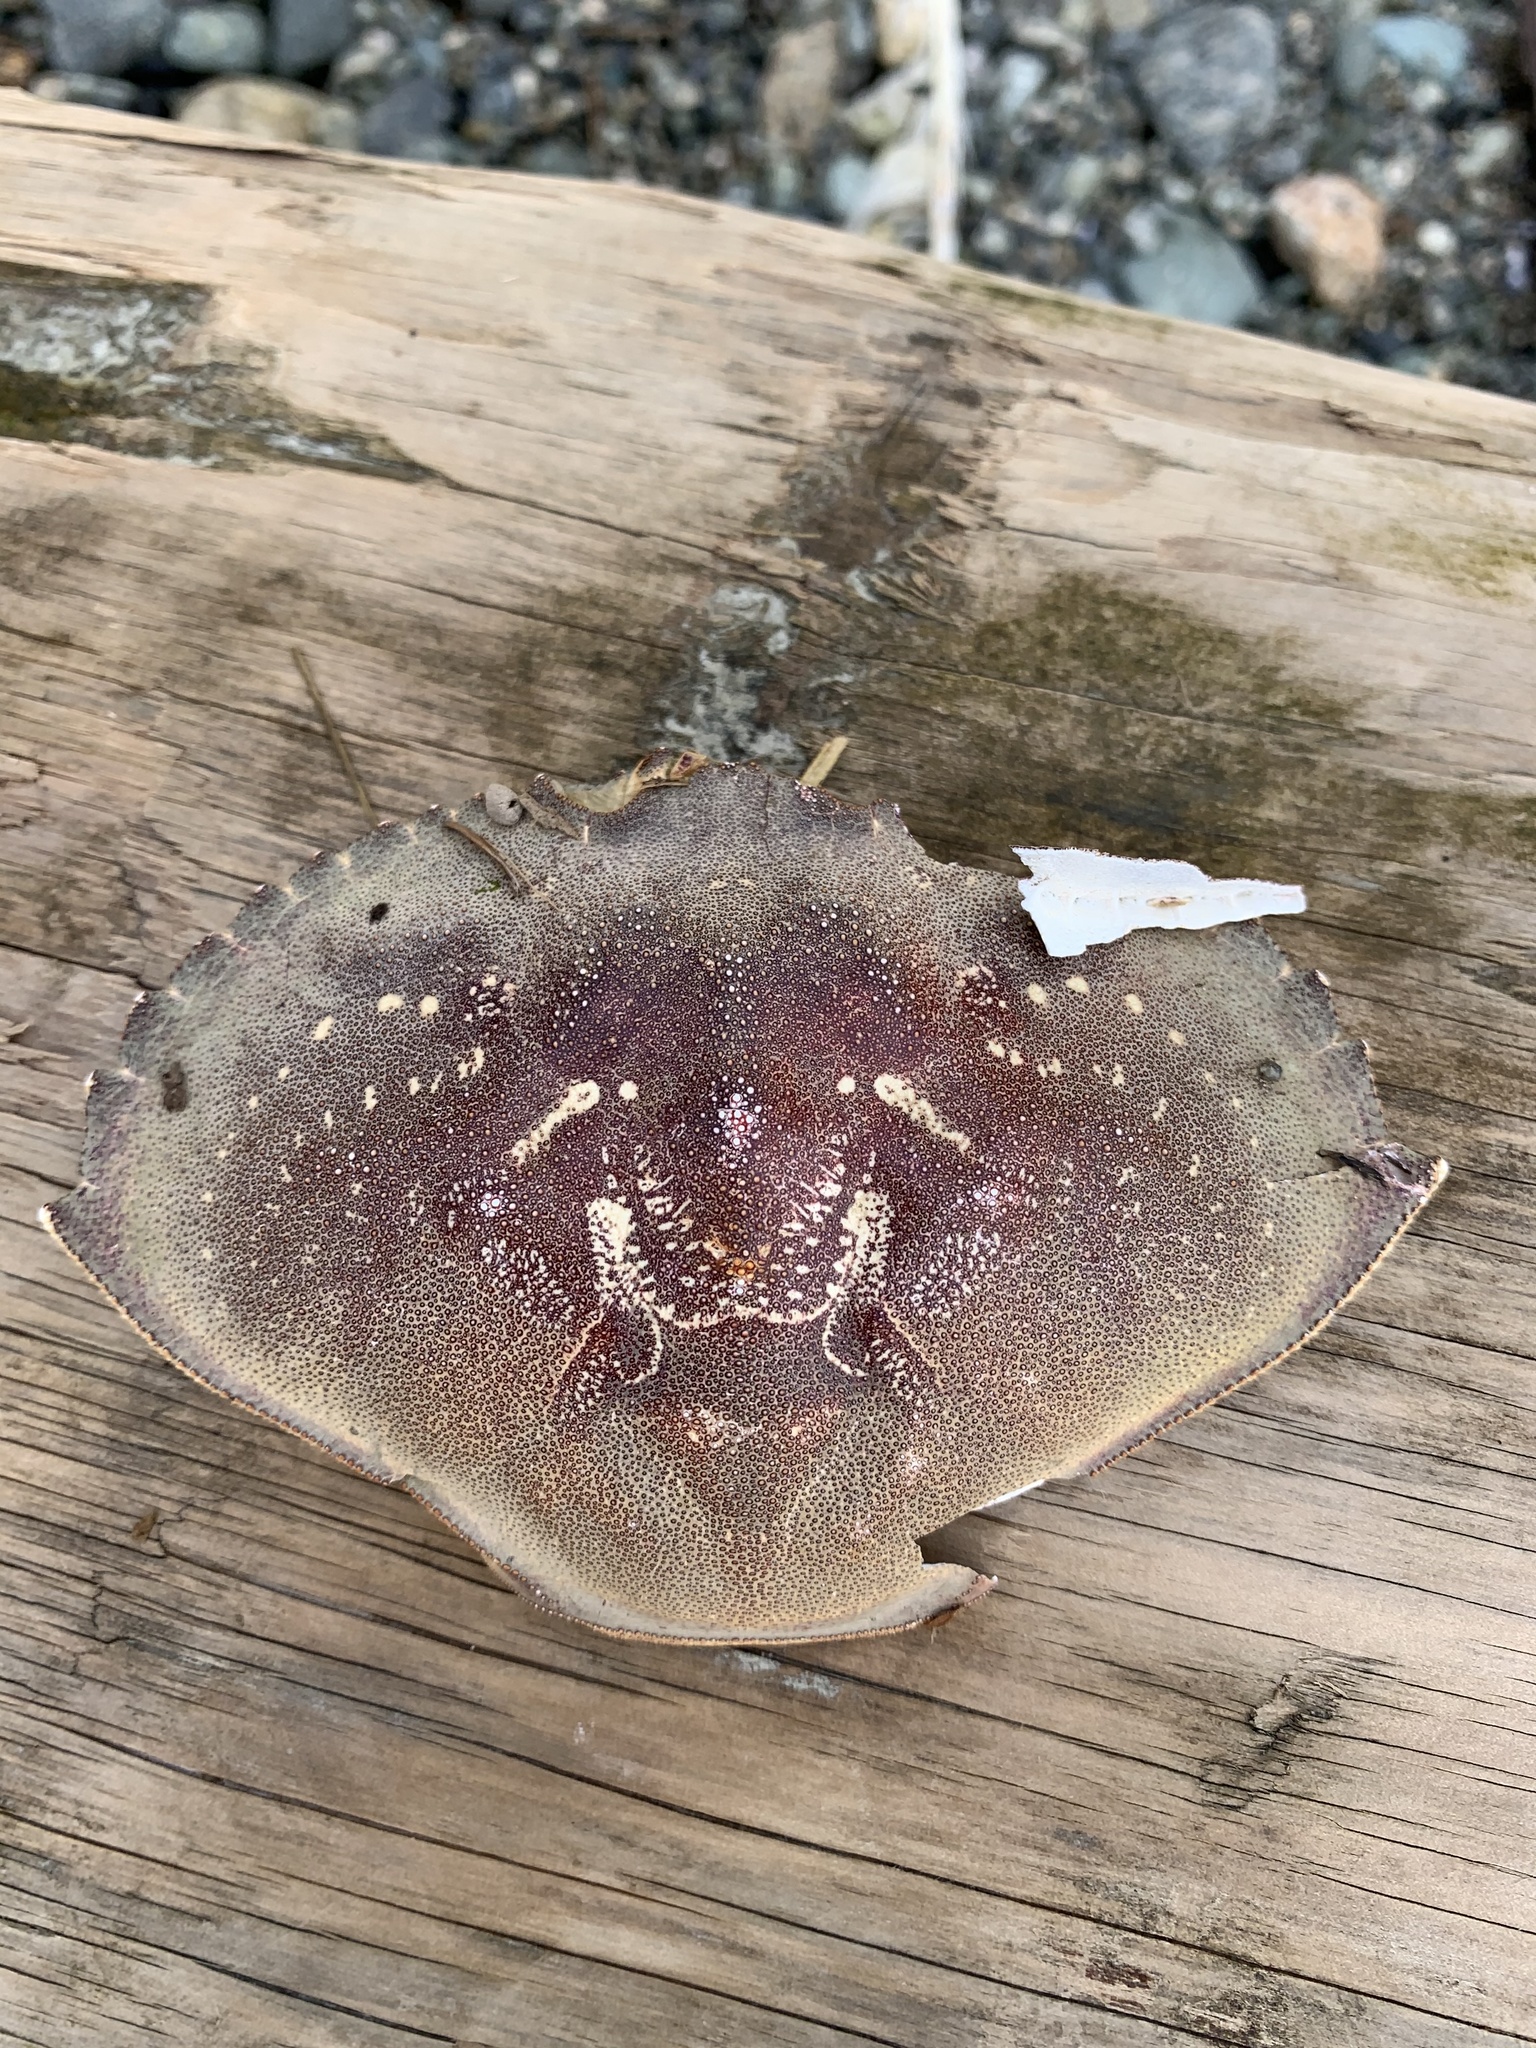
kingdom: Animalia
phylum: Arthropoda
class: Malacostraca
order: Decapoda
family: Cancridae
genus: Metacarcinus
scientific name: Metacarcinus magister
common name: Californian crab
